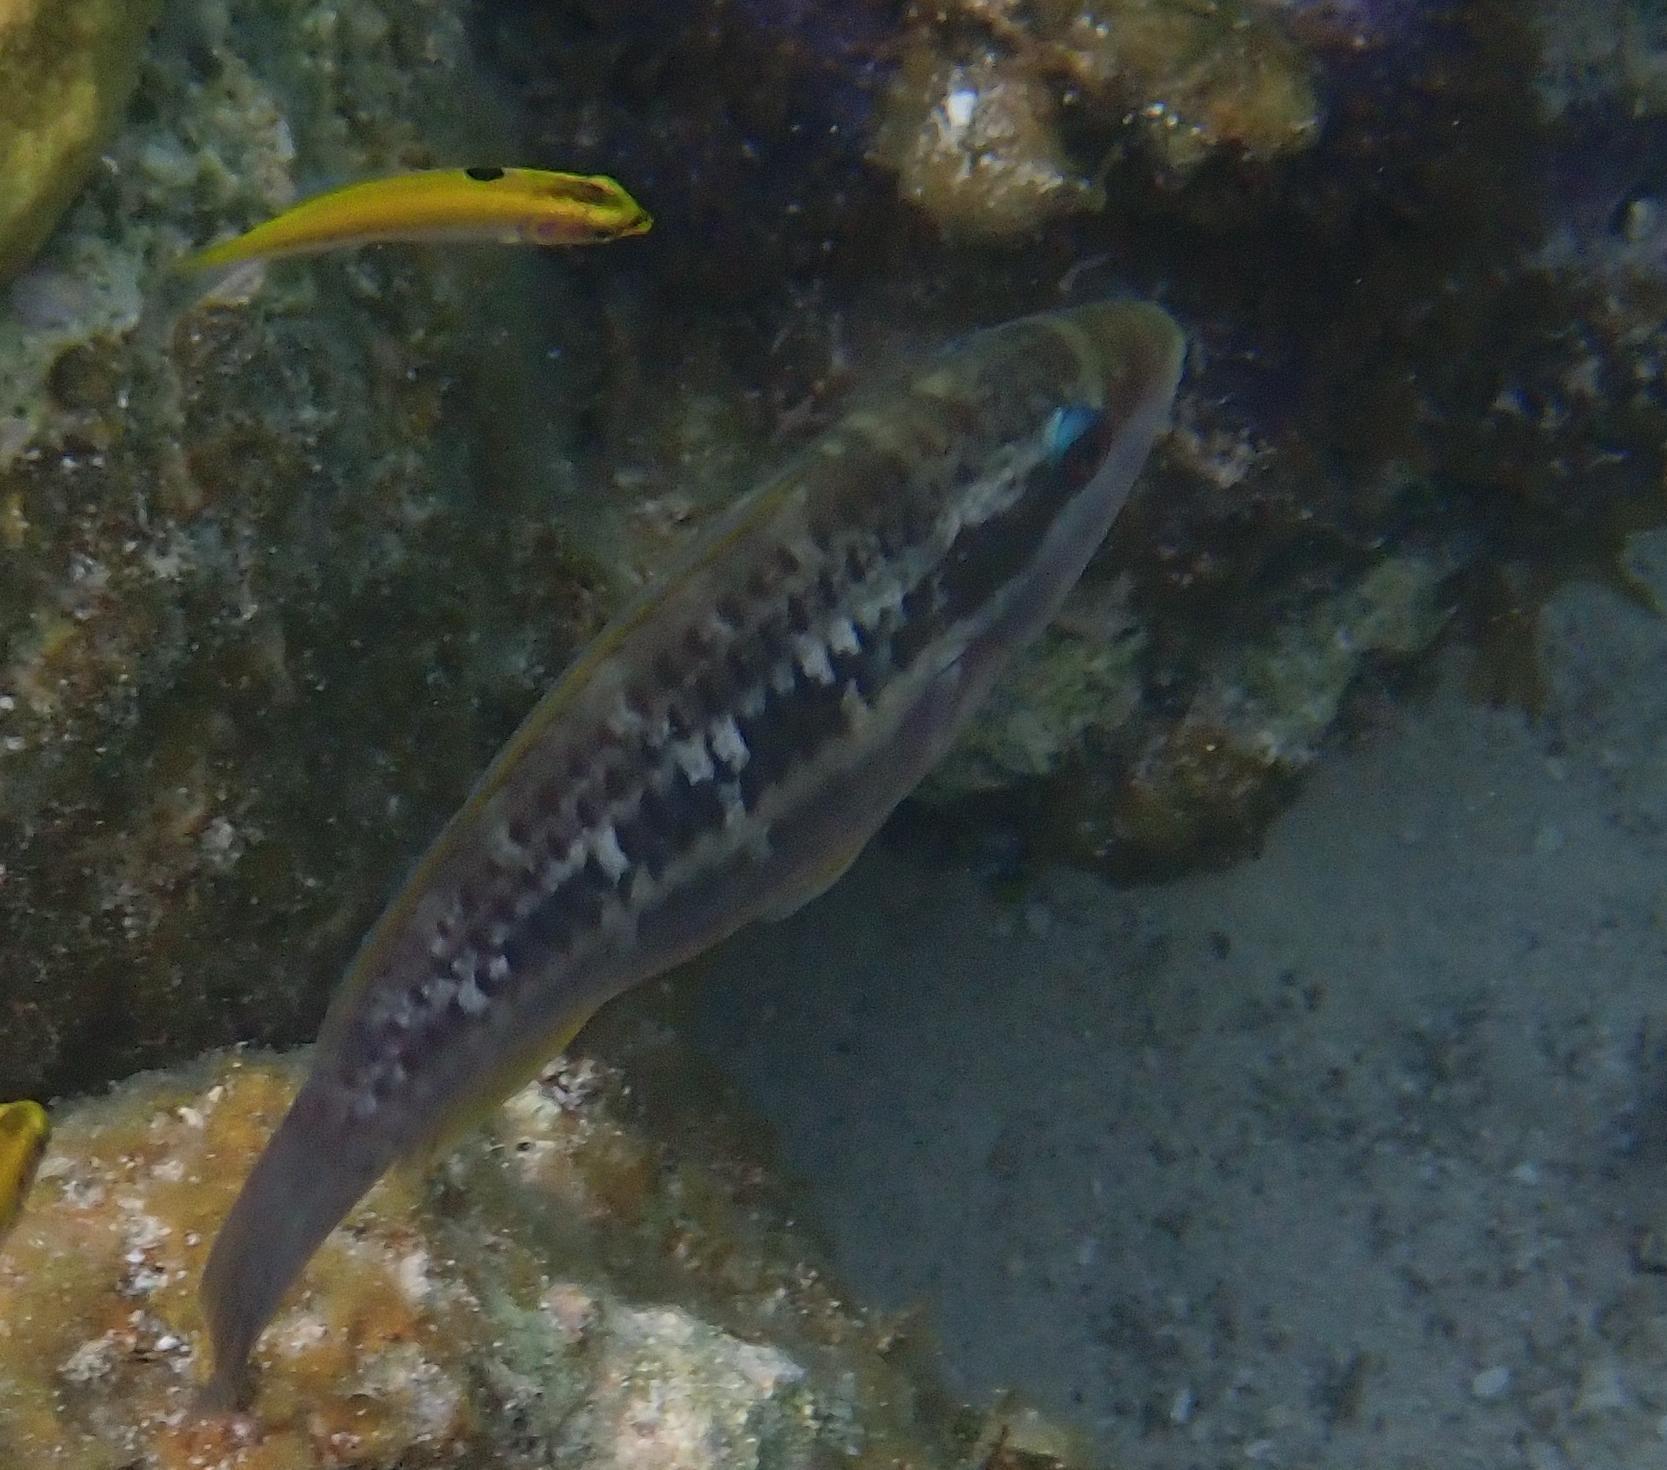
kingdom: Animalia
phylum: Chordata
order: Perciformes
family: Scaridae
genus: Scarus
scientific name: Scarus iseri
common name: Striped parrotfish
